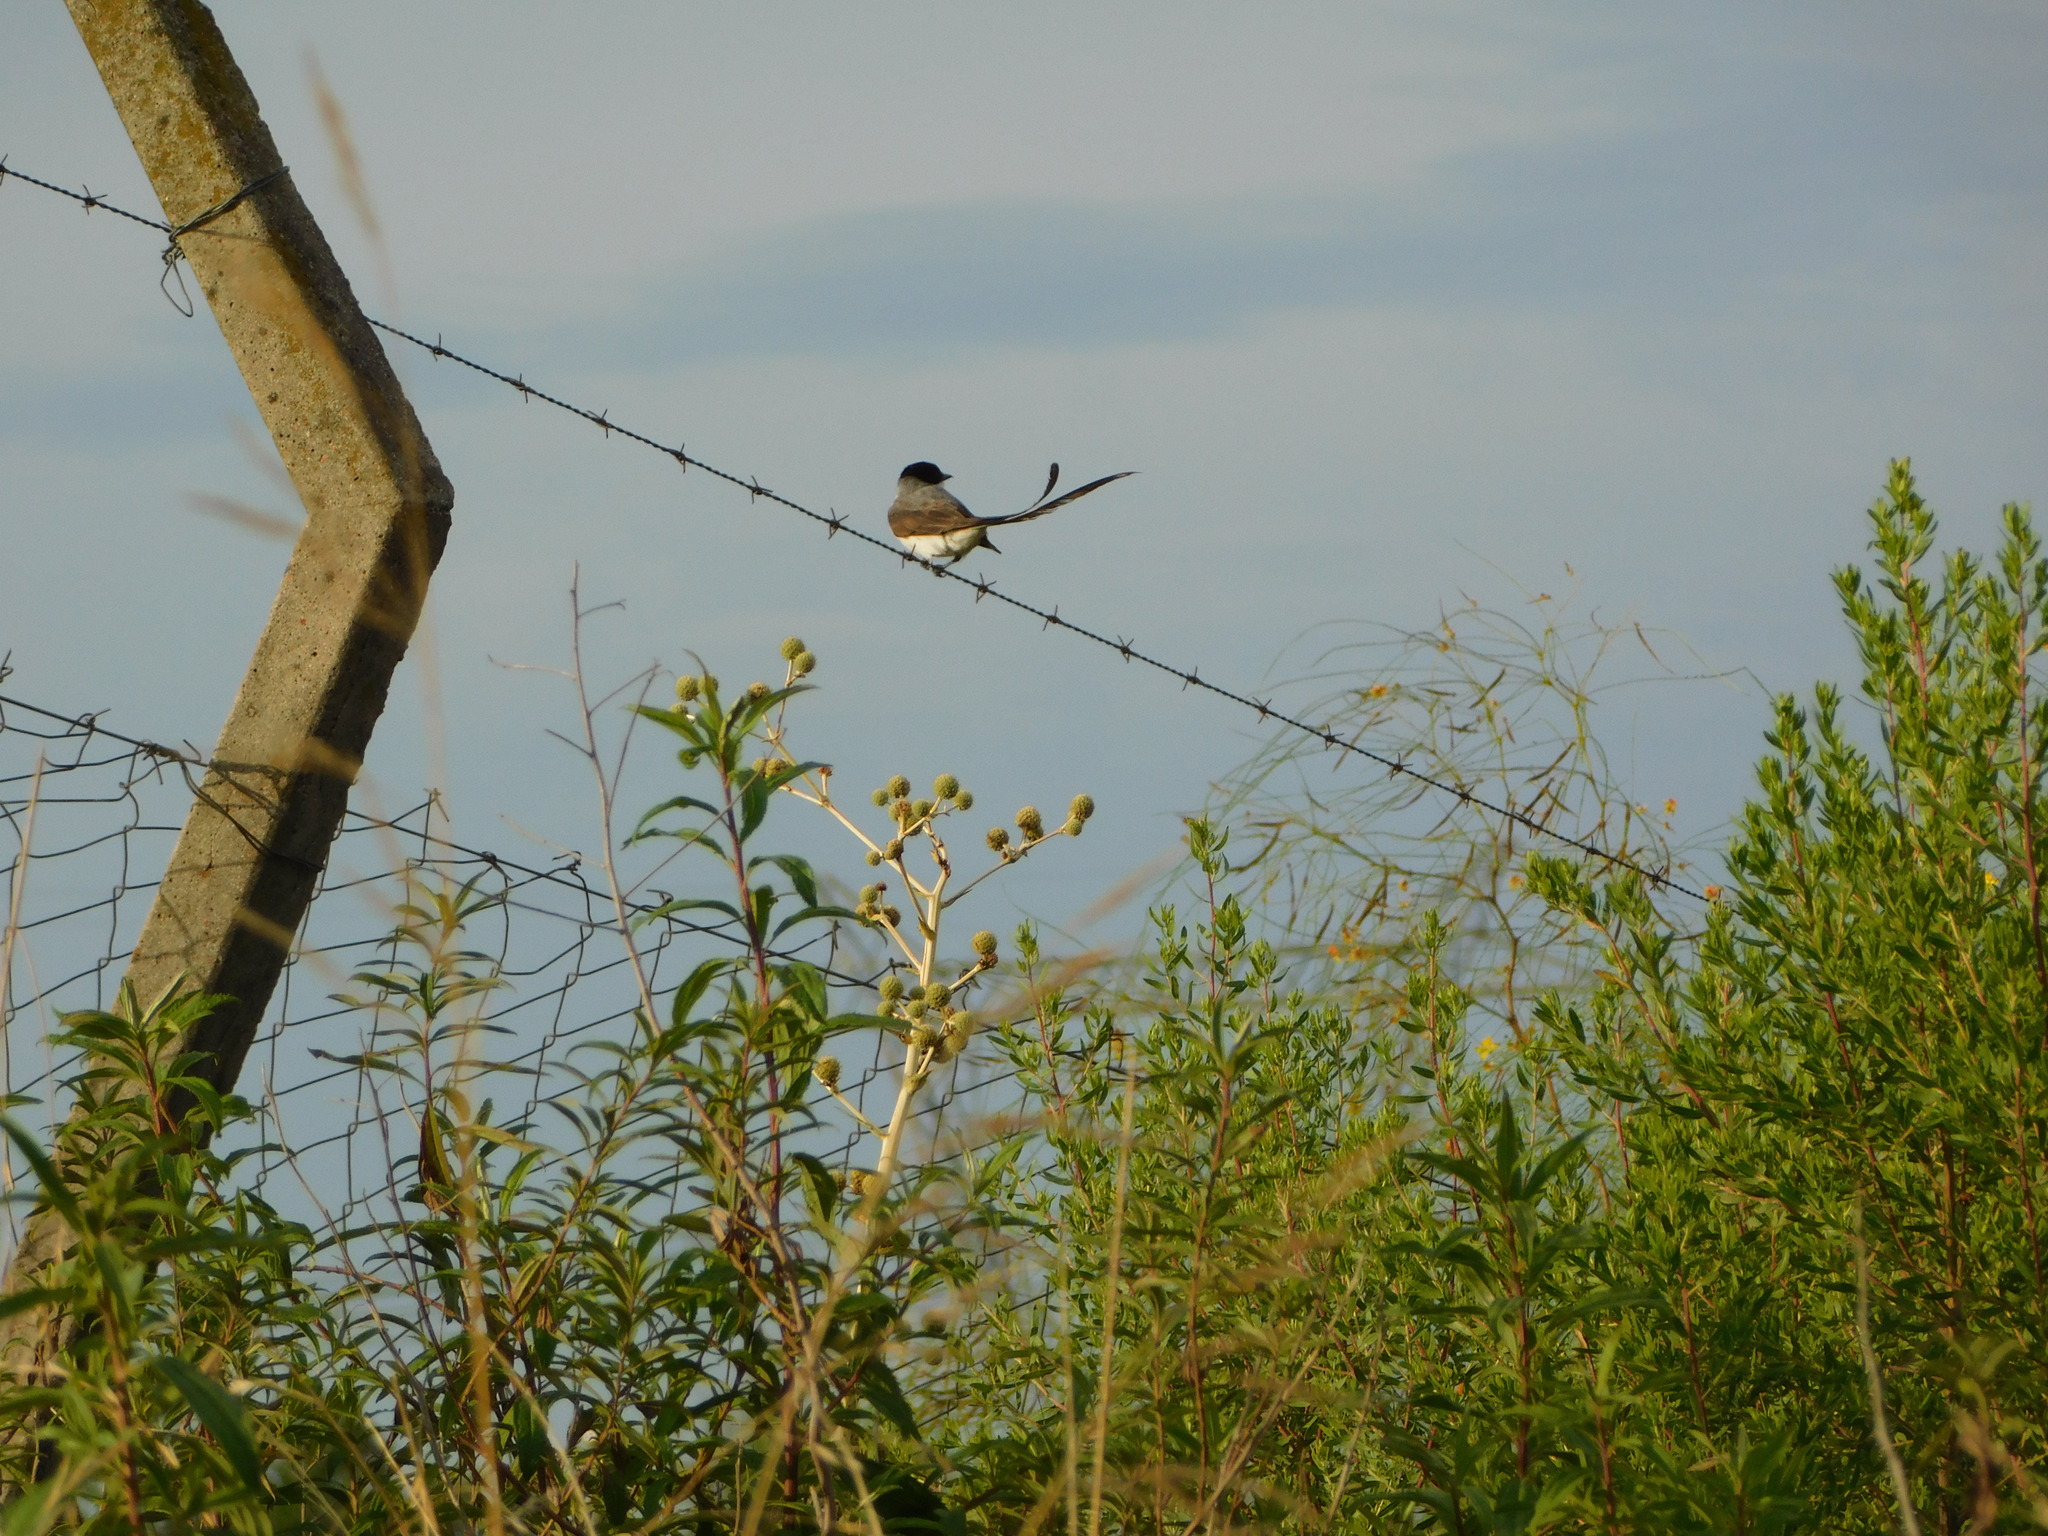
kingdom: Animalia
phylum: Chordata
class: Aves
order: Passeriformes
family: Tyrannidae
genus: Tyrannus
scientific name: Tyrannus savana
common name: Fork-tailed flycatcher
